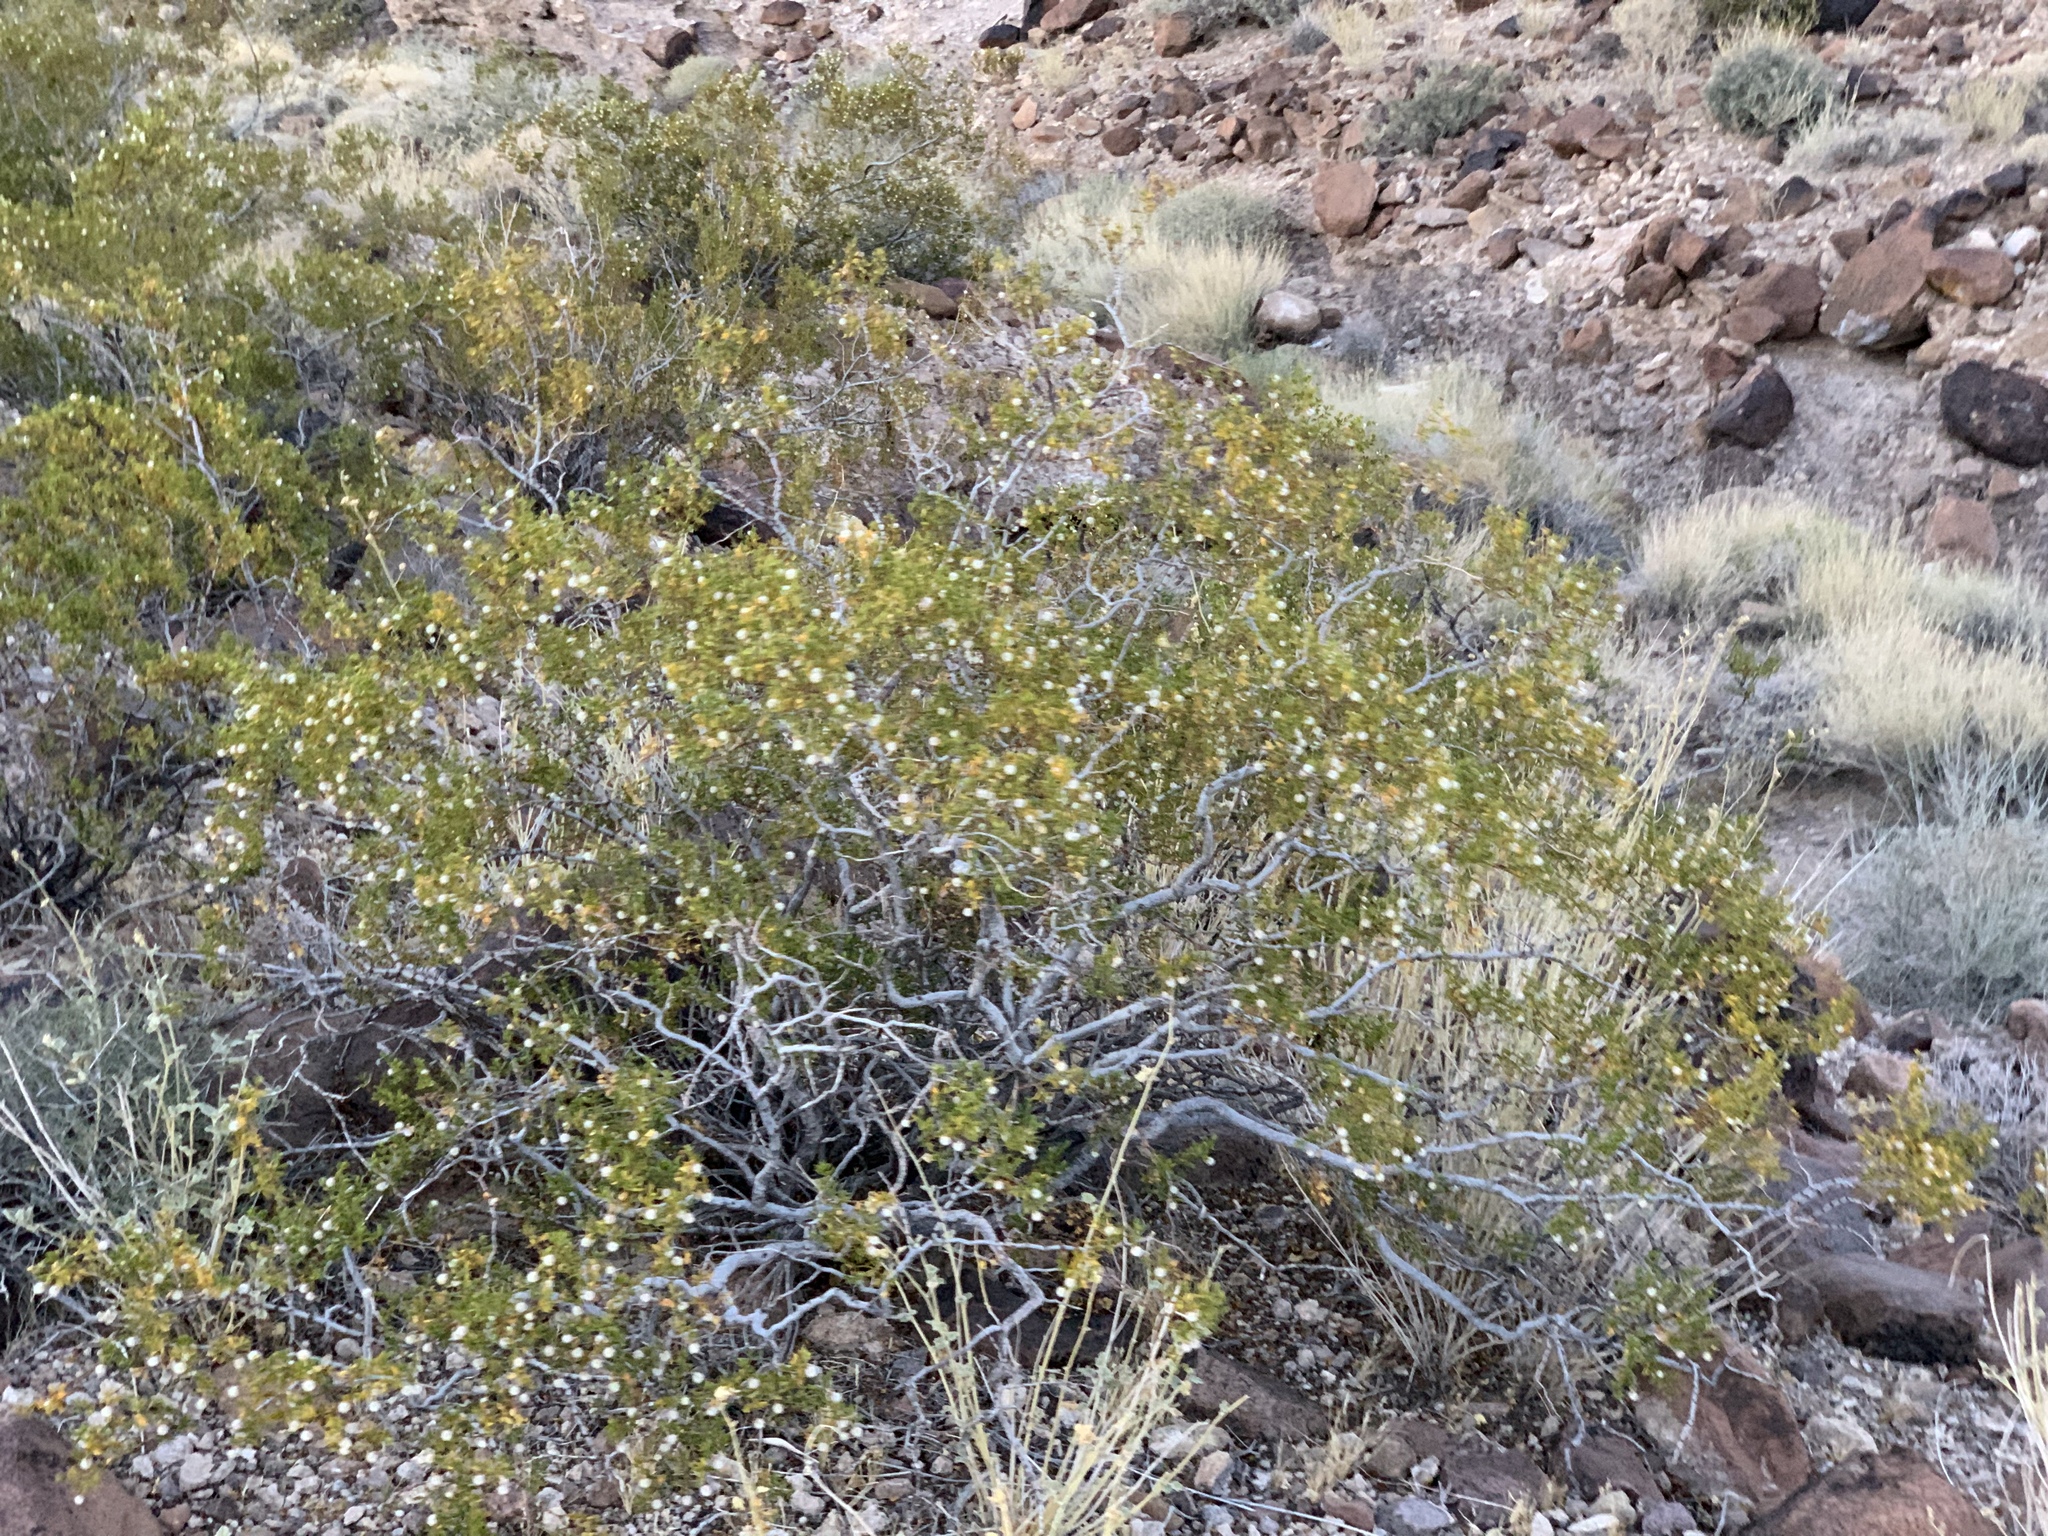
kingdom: Plantae
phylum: Tracheophyta
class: Magnoliopsida
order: Zygophyllales
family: Zygophyllaceae
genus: Larrea
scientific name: Larrea tridentata
